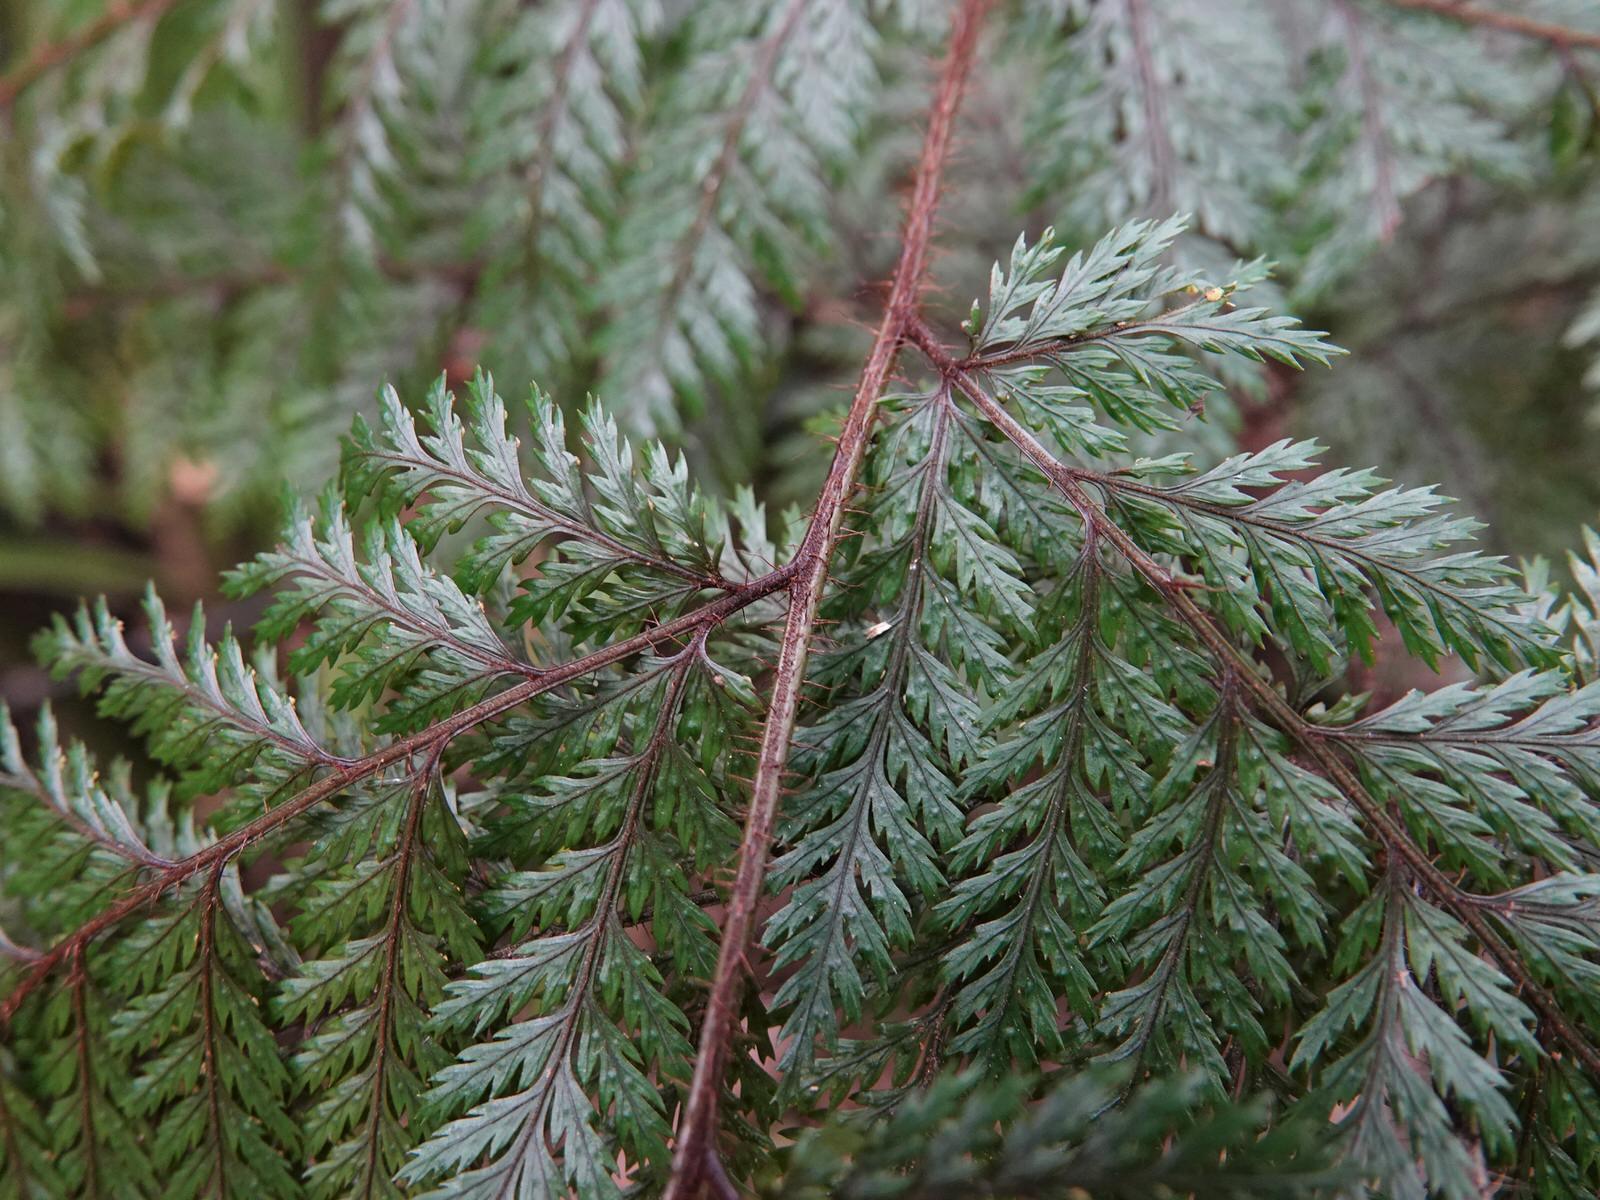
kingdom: Plantae
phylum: Tracheophyta
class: Polypodiopsida
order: Polypodiales
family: Dryopteridaceae
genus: Lastreopsis
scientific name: Lastreopsis hispida
